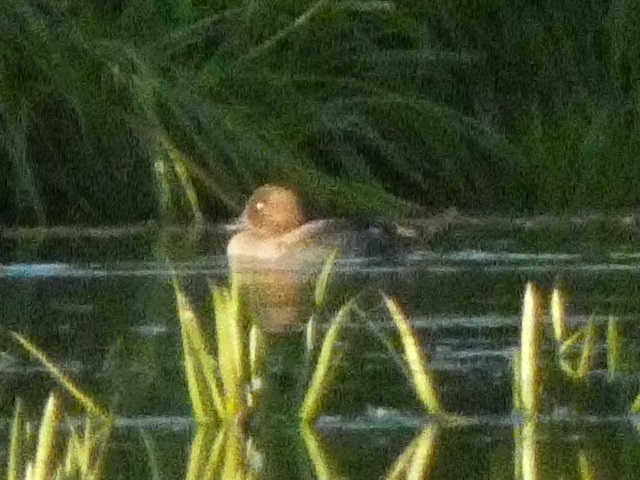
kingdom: Animalia
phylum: Chordata
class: Aves
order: Anseriformes
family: Anatidae
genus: Bucephala
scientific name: Bucephala clangula
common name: Common goldeneye
